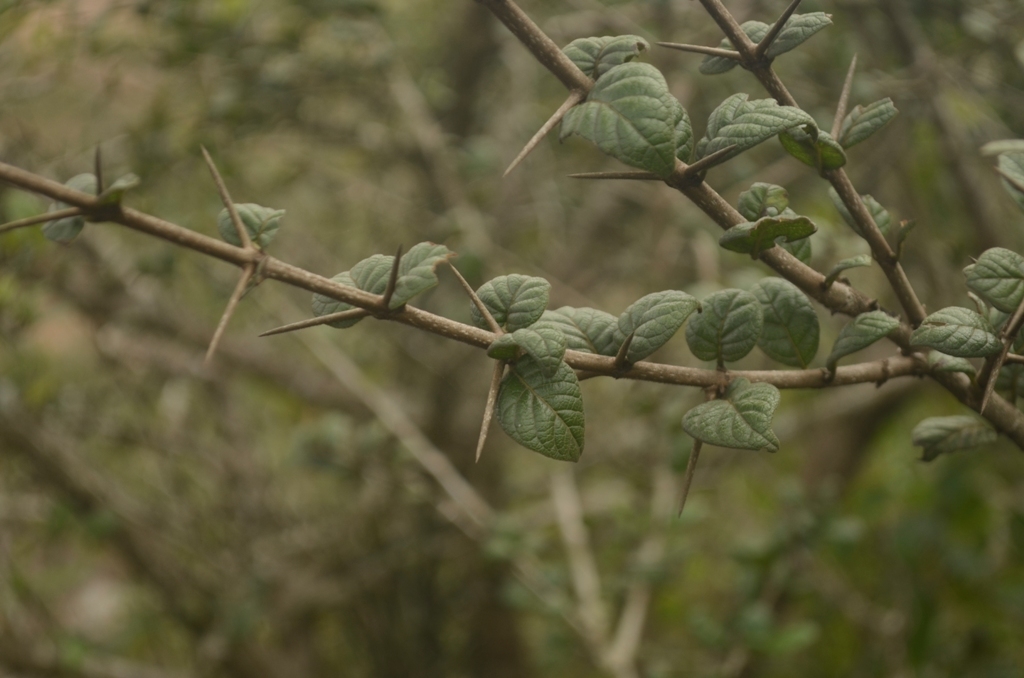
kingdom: Plantae
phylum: Tracheophyta
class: Magnoliopsida
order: Gentianales
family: Rubiaceae
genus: Catunaregam
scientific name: Catunaregam spinosa
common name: Emetic-nut
